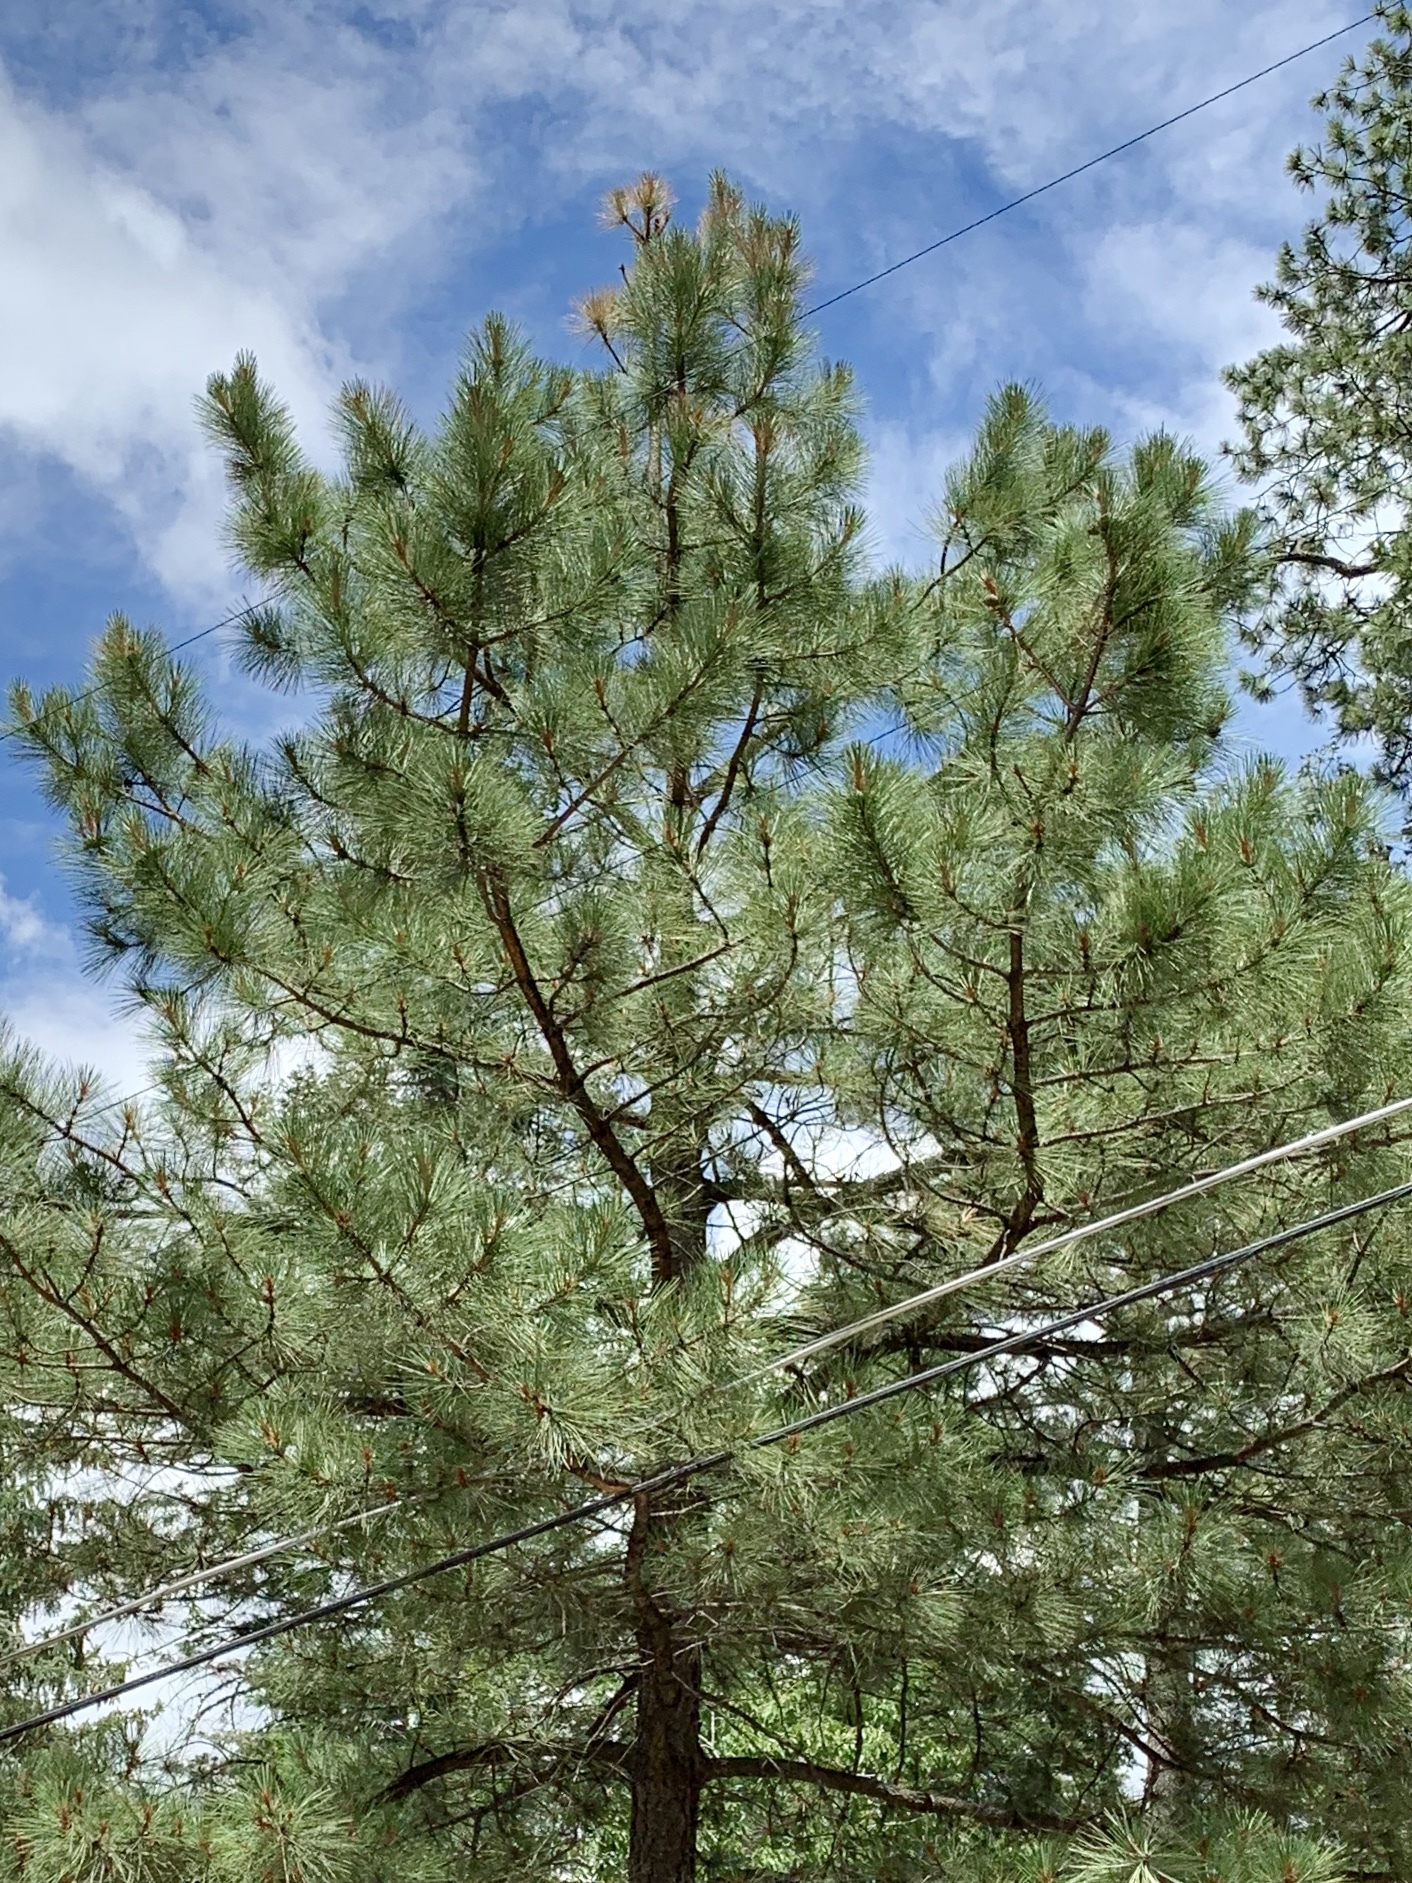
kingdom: Plantae
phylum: Tracheophyta
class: Pinopsida
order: Pinales
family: Pinaceae
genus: Pinus
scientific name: Pinus ponderosa
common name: Western yellow-pine
